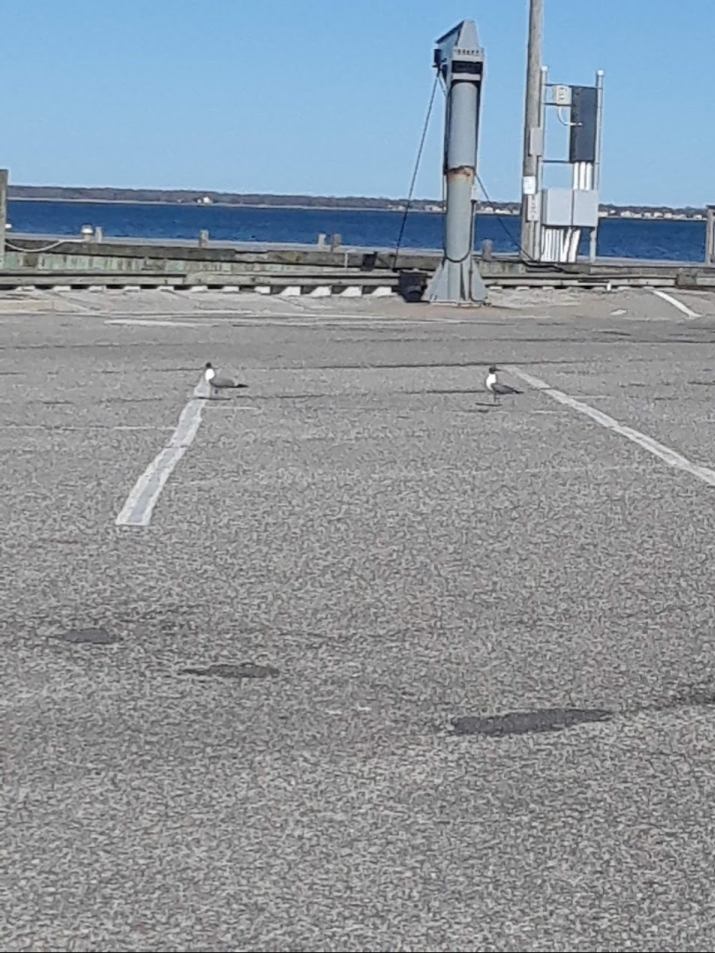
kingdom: Animalia
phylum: Chordata
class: Aves
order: Charadriiformes
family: Laridae
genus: Leucophaeus
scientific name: Leucophaeus atricilla
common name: Laughing gull
